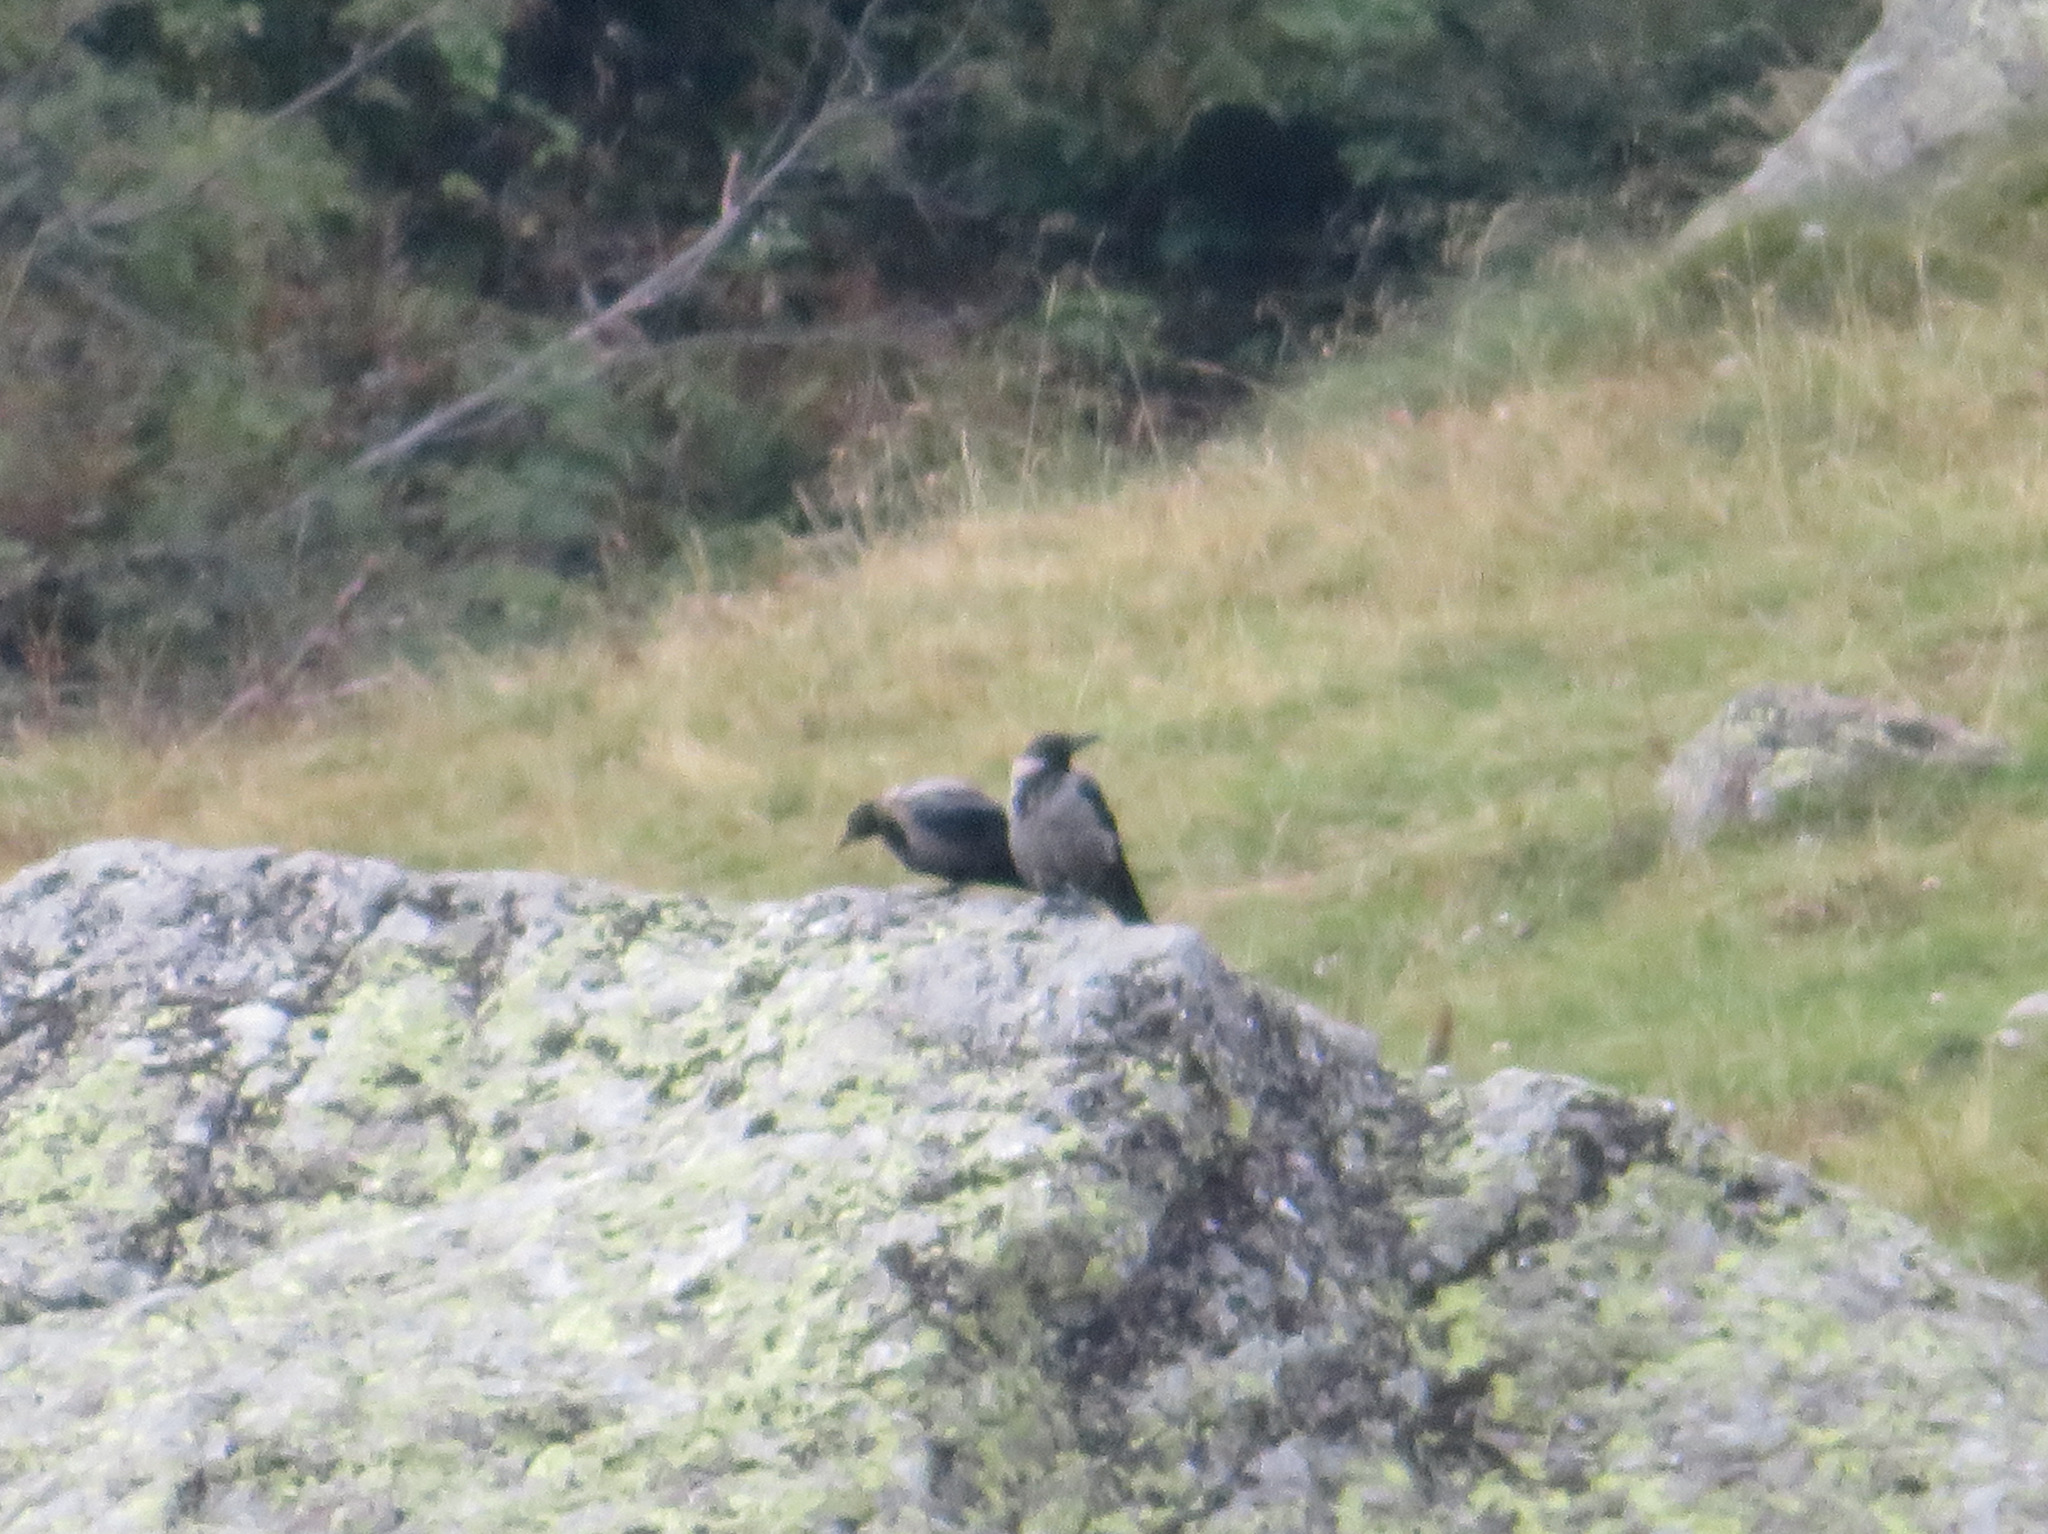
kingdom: Animalia
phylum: Chordata
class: Aves
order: Passeriformes
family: Corvidae
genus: Corvus
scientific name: Corvus cornix
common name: Hooded crow
